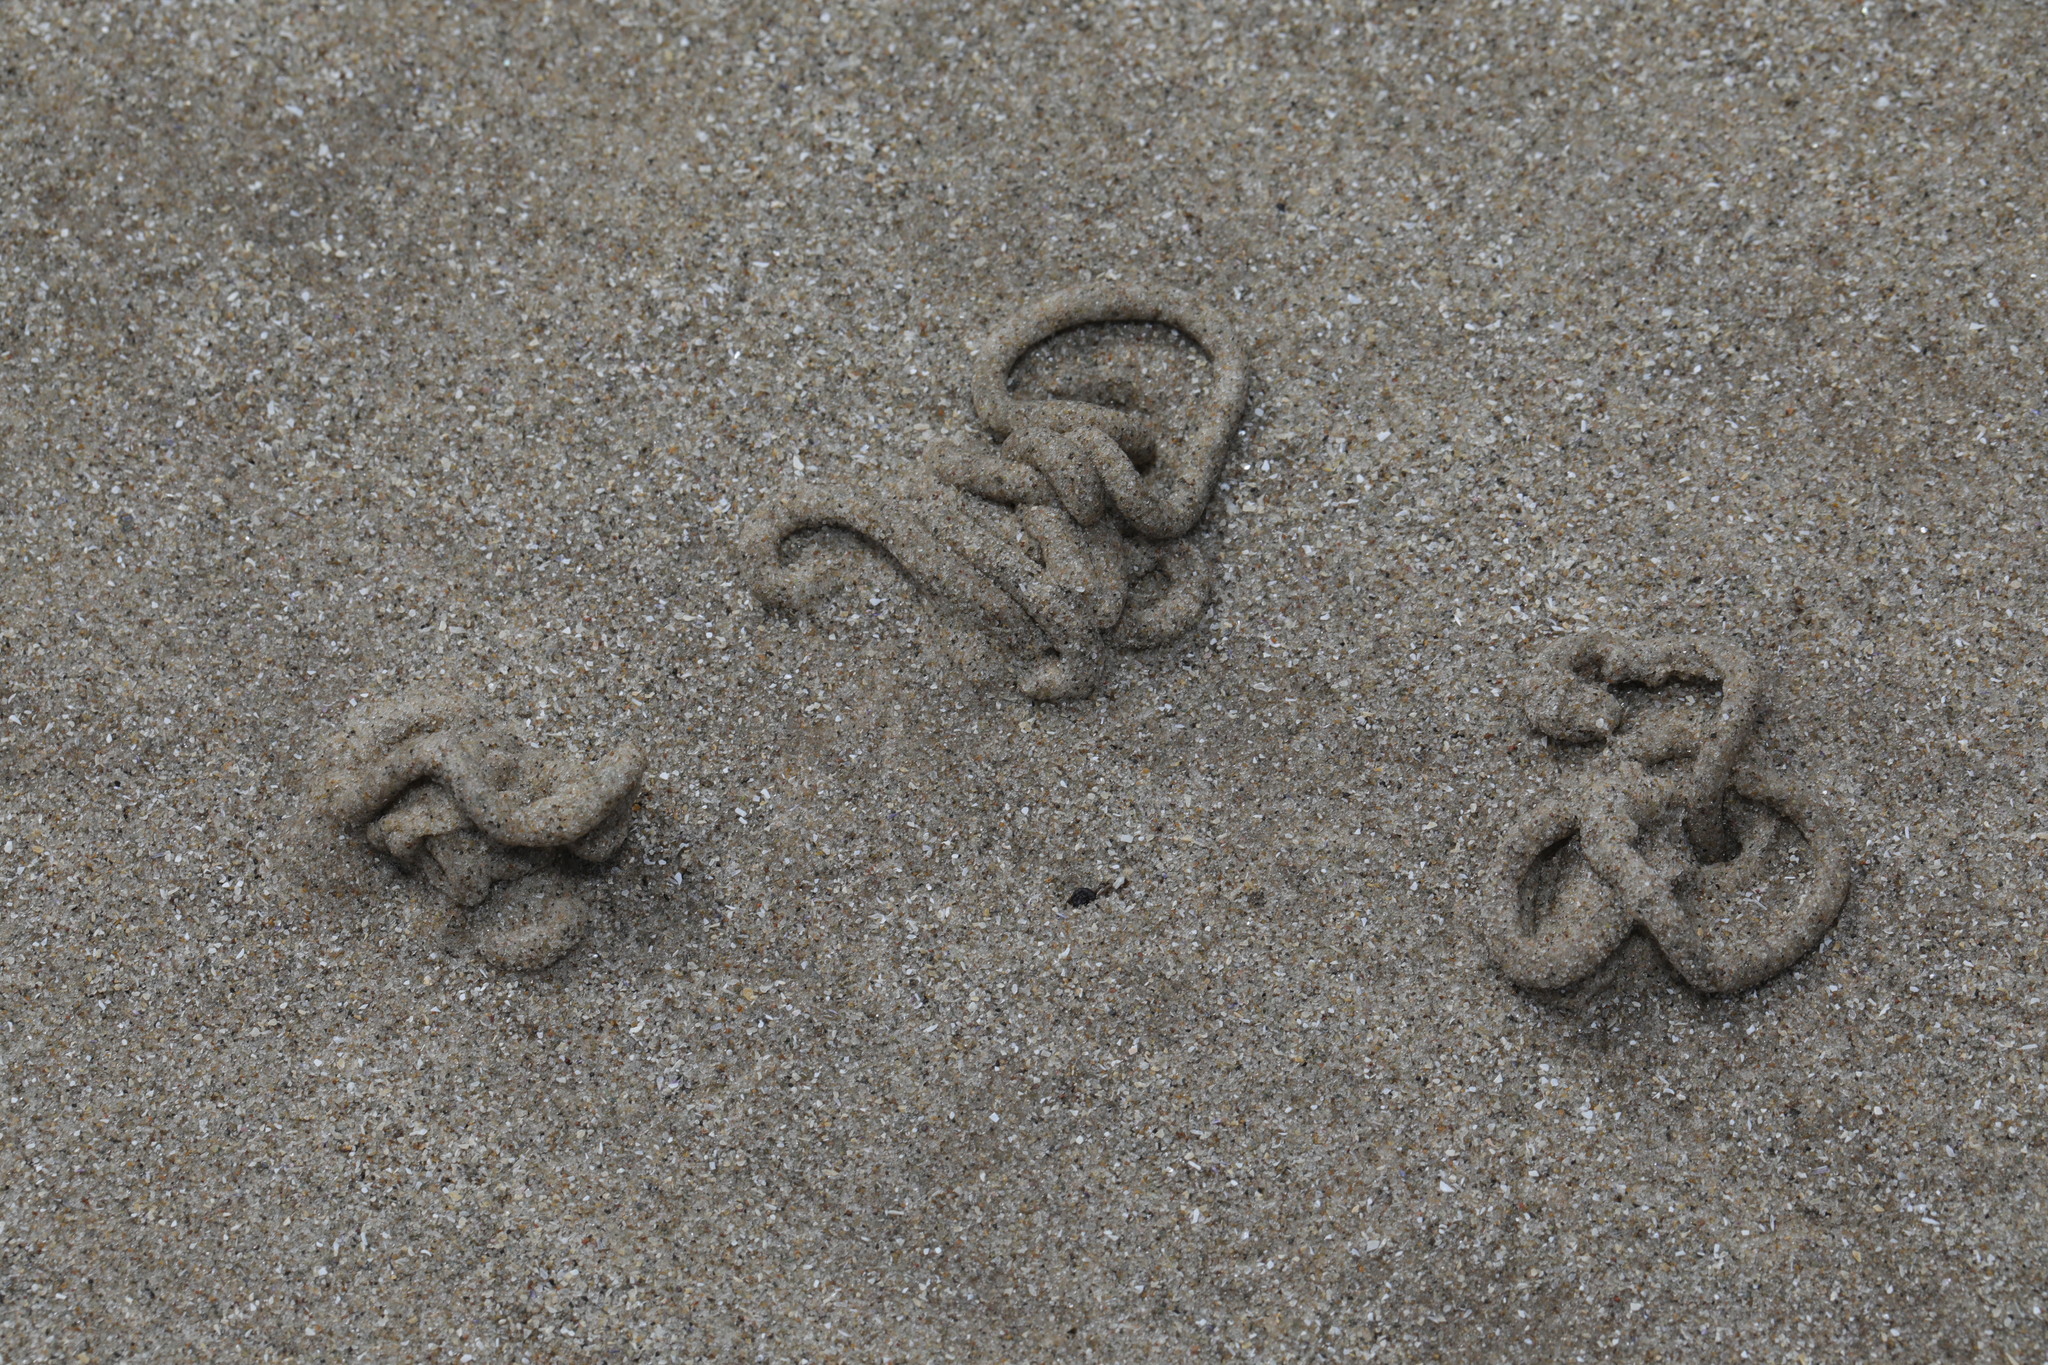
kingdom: Animalia
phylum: Annelida
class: Polychaeta
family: Arenicolidae
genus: Arenicola
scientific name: Arenicola marina
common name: Blow lugworm
